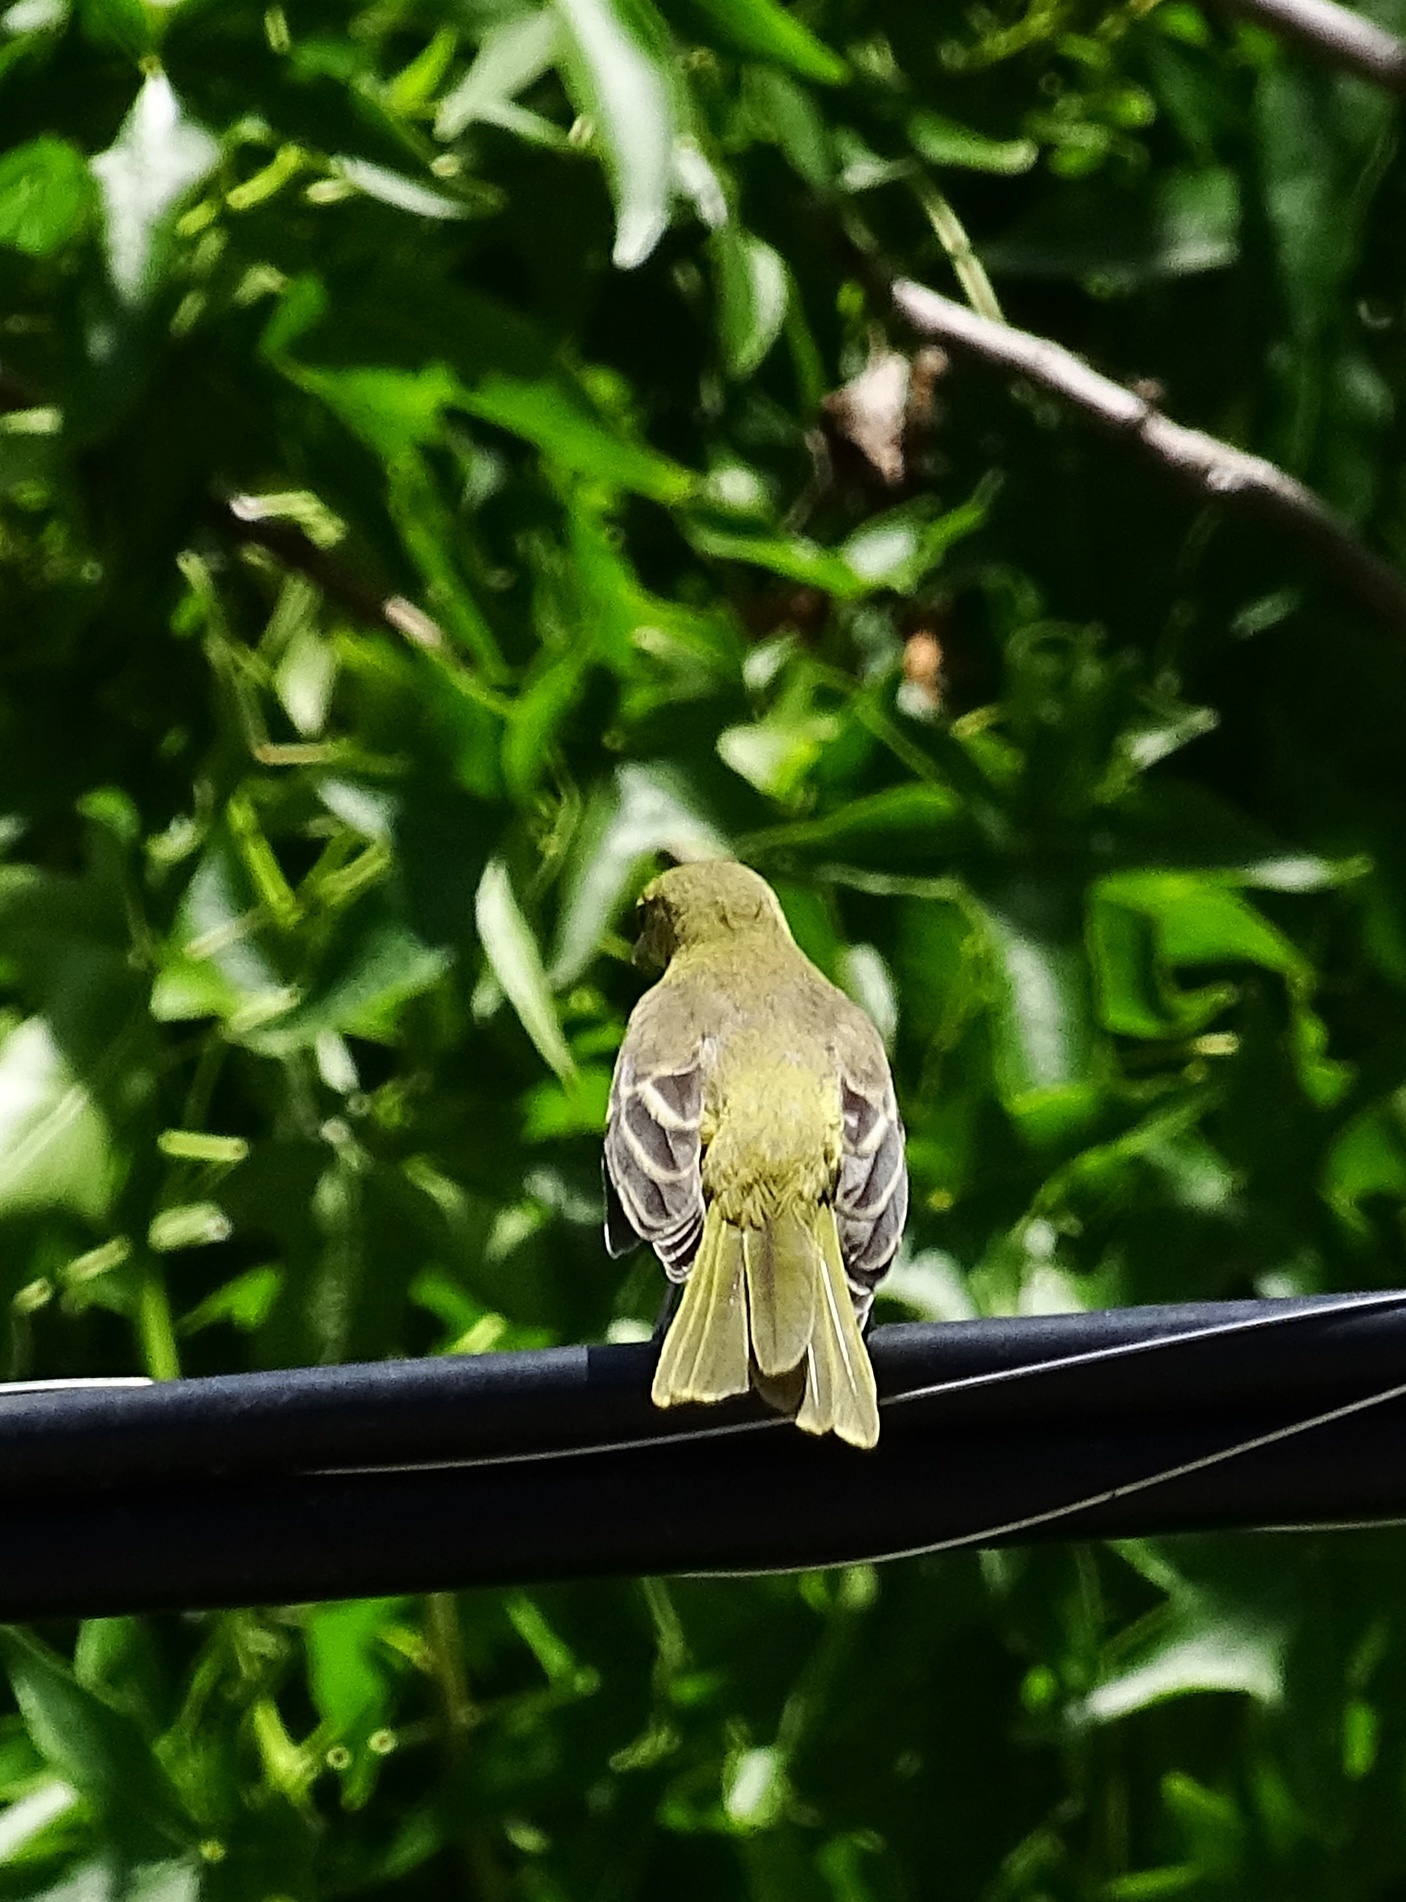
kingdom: Animalia
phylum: Chordata
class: Aves
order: Passeriformes
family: Icteridae
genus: Icterus
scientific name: Icterus cucullatus
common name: Hooded oriole
